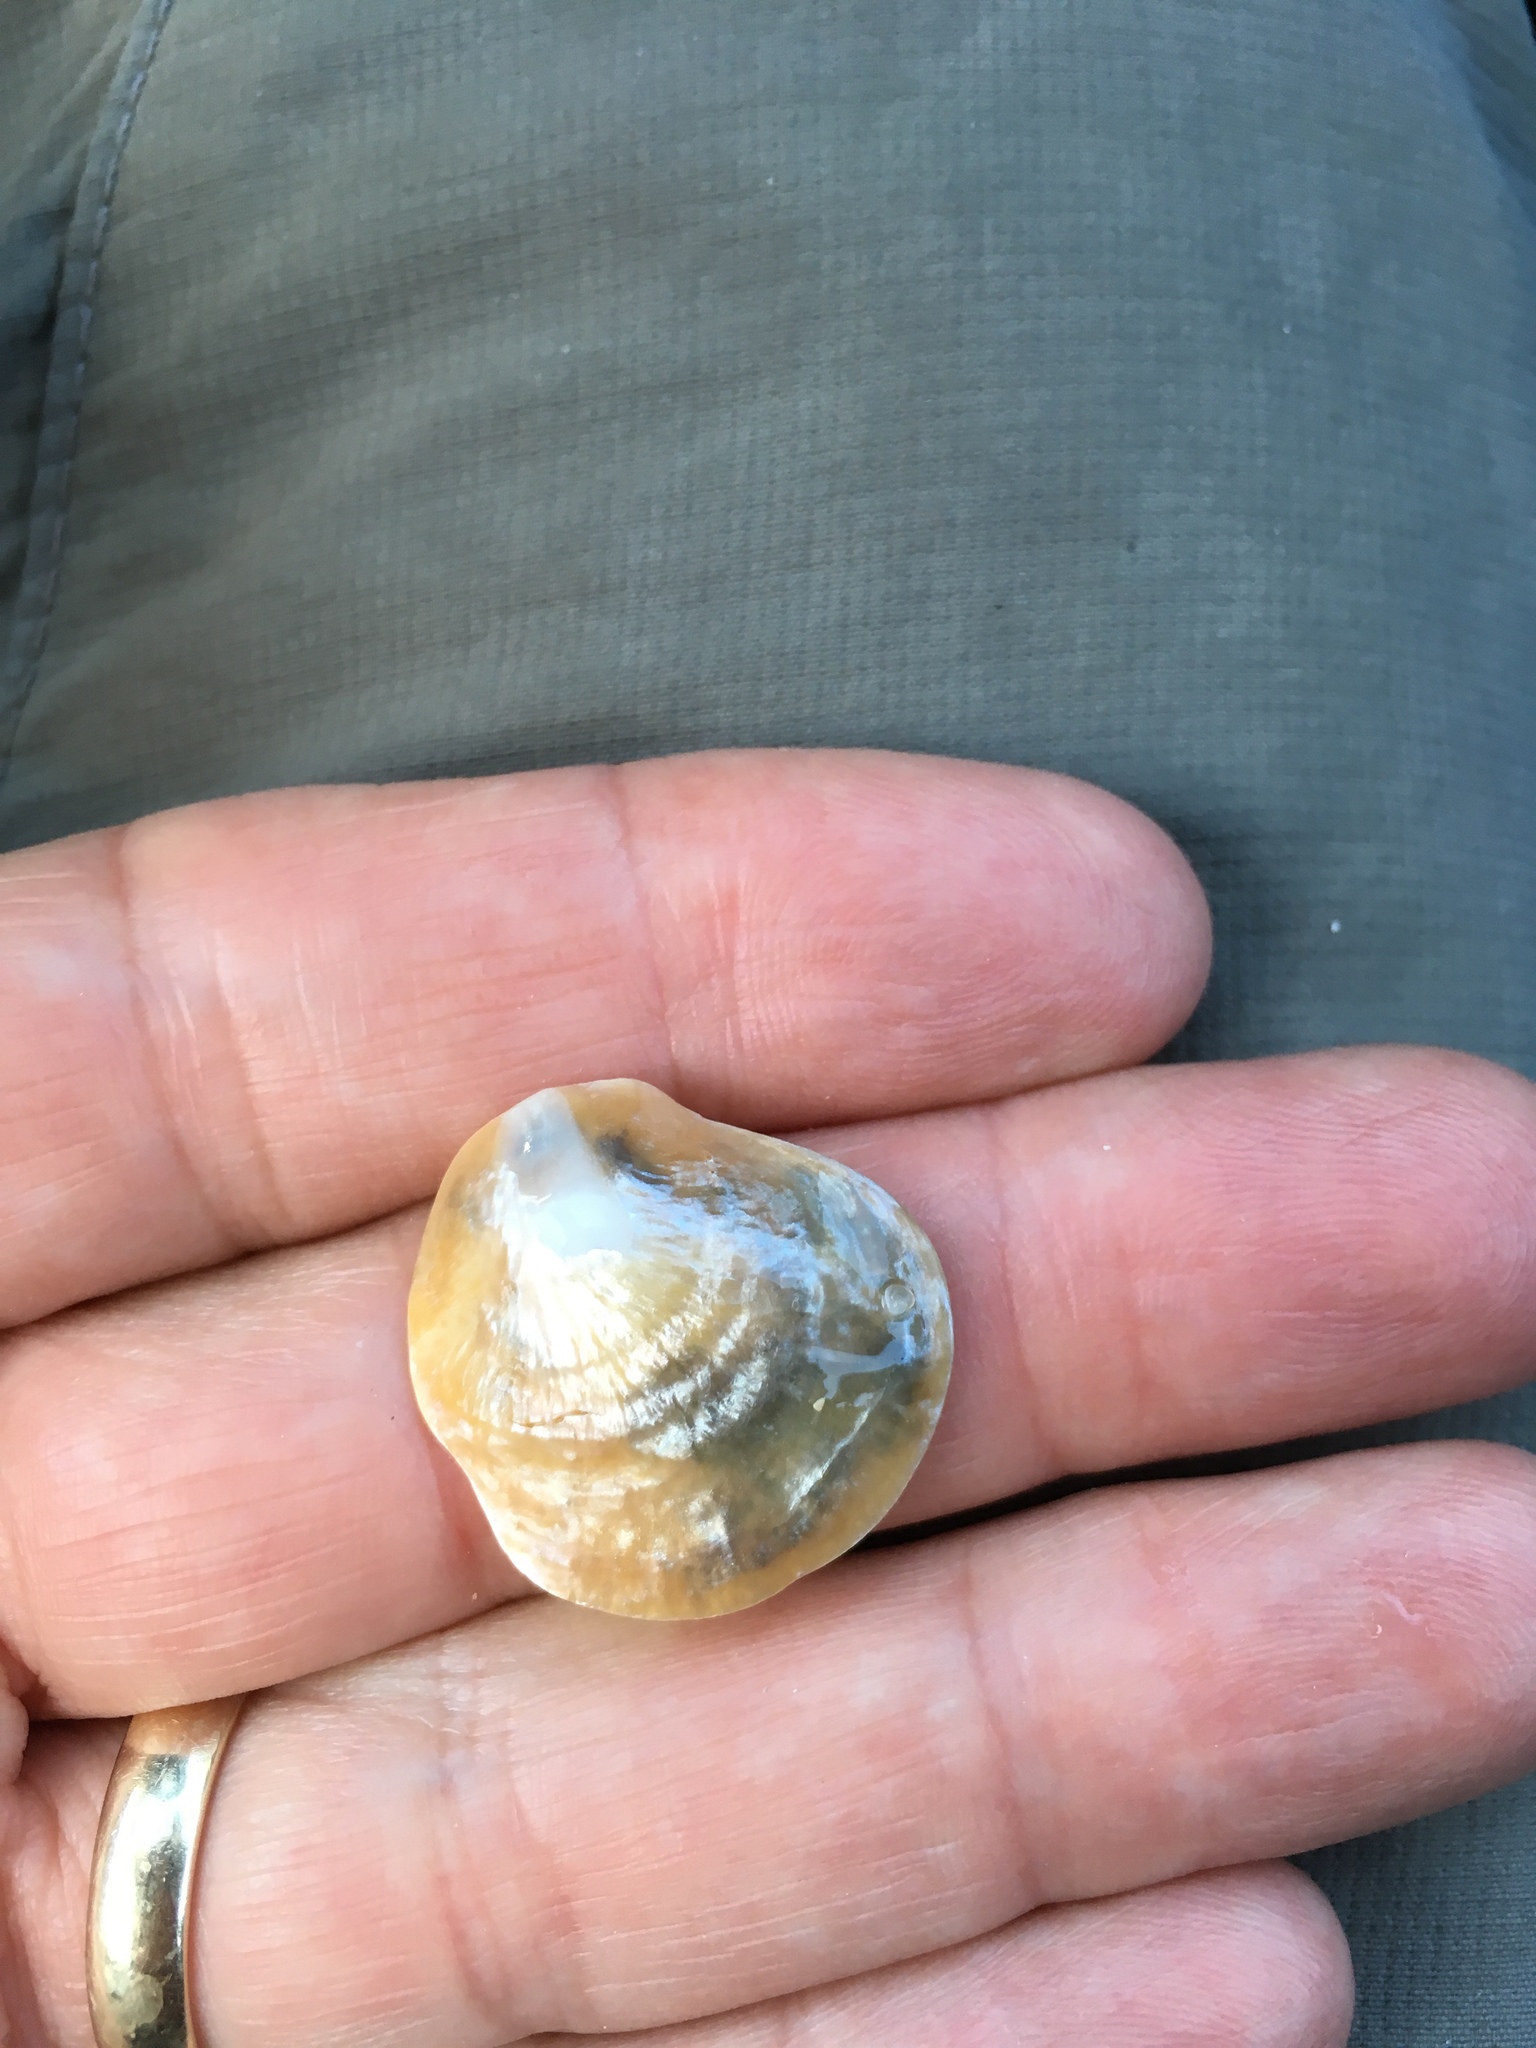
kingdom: Animalia
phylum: Mollusca
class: Bivalvia
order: Pectinida
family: Anomiidae
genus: Anomia
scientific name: Anomia simplex
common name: Common jingle shell
